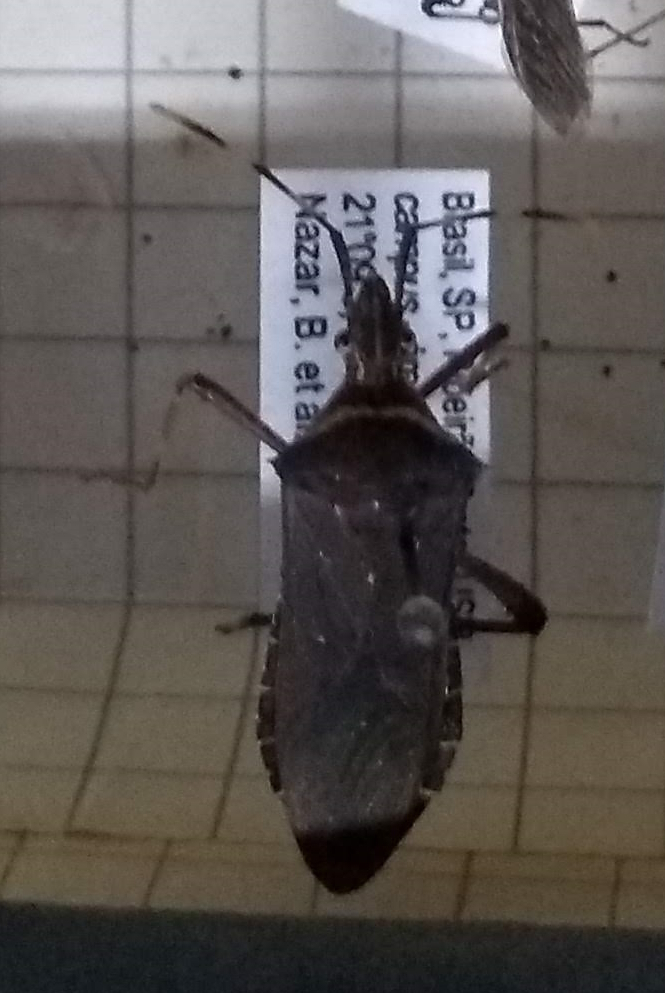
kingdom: Animalia
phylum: Arthropoda
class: Insecta
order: Hemiptera
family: Coreidae
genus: Leptoglossus
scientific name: Leptoglossus gonagra
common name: Citron bug
